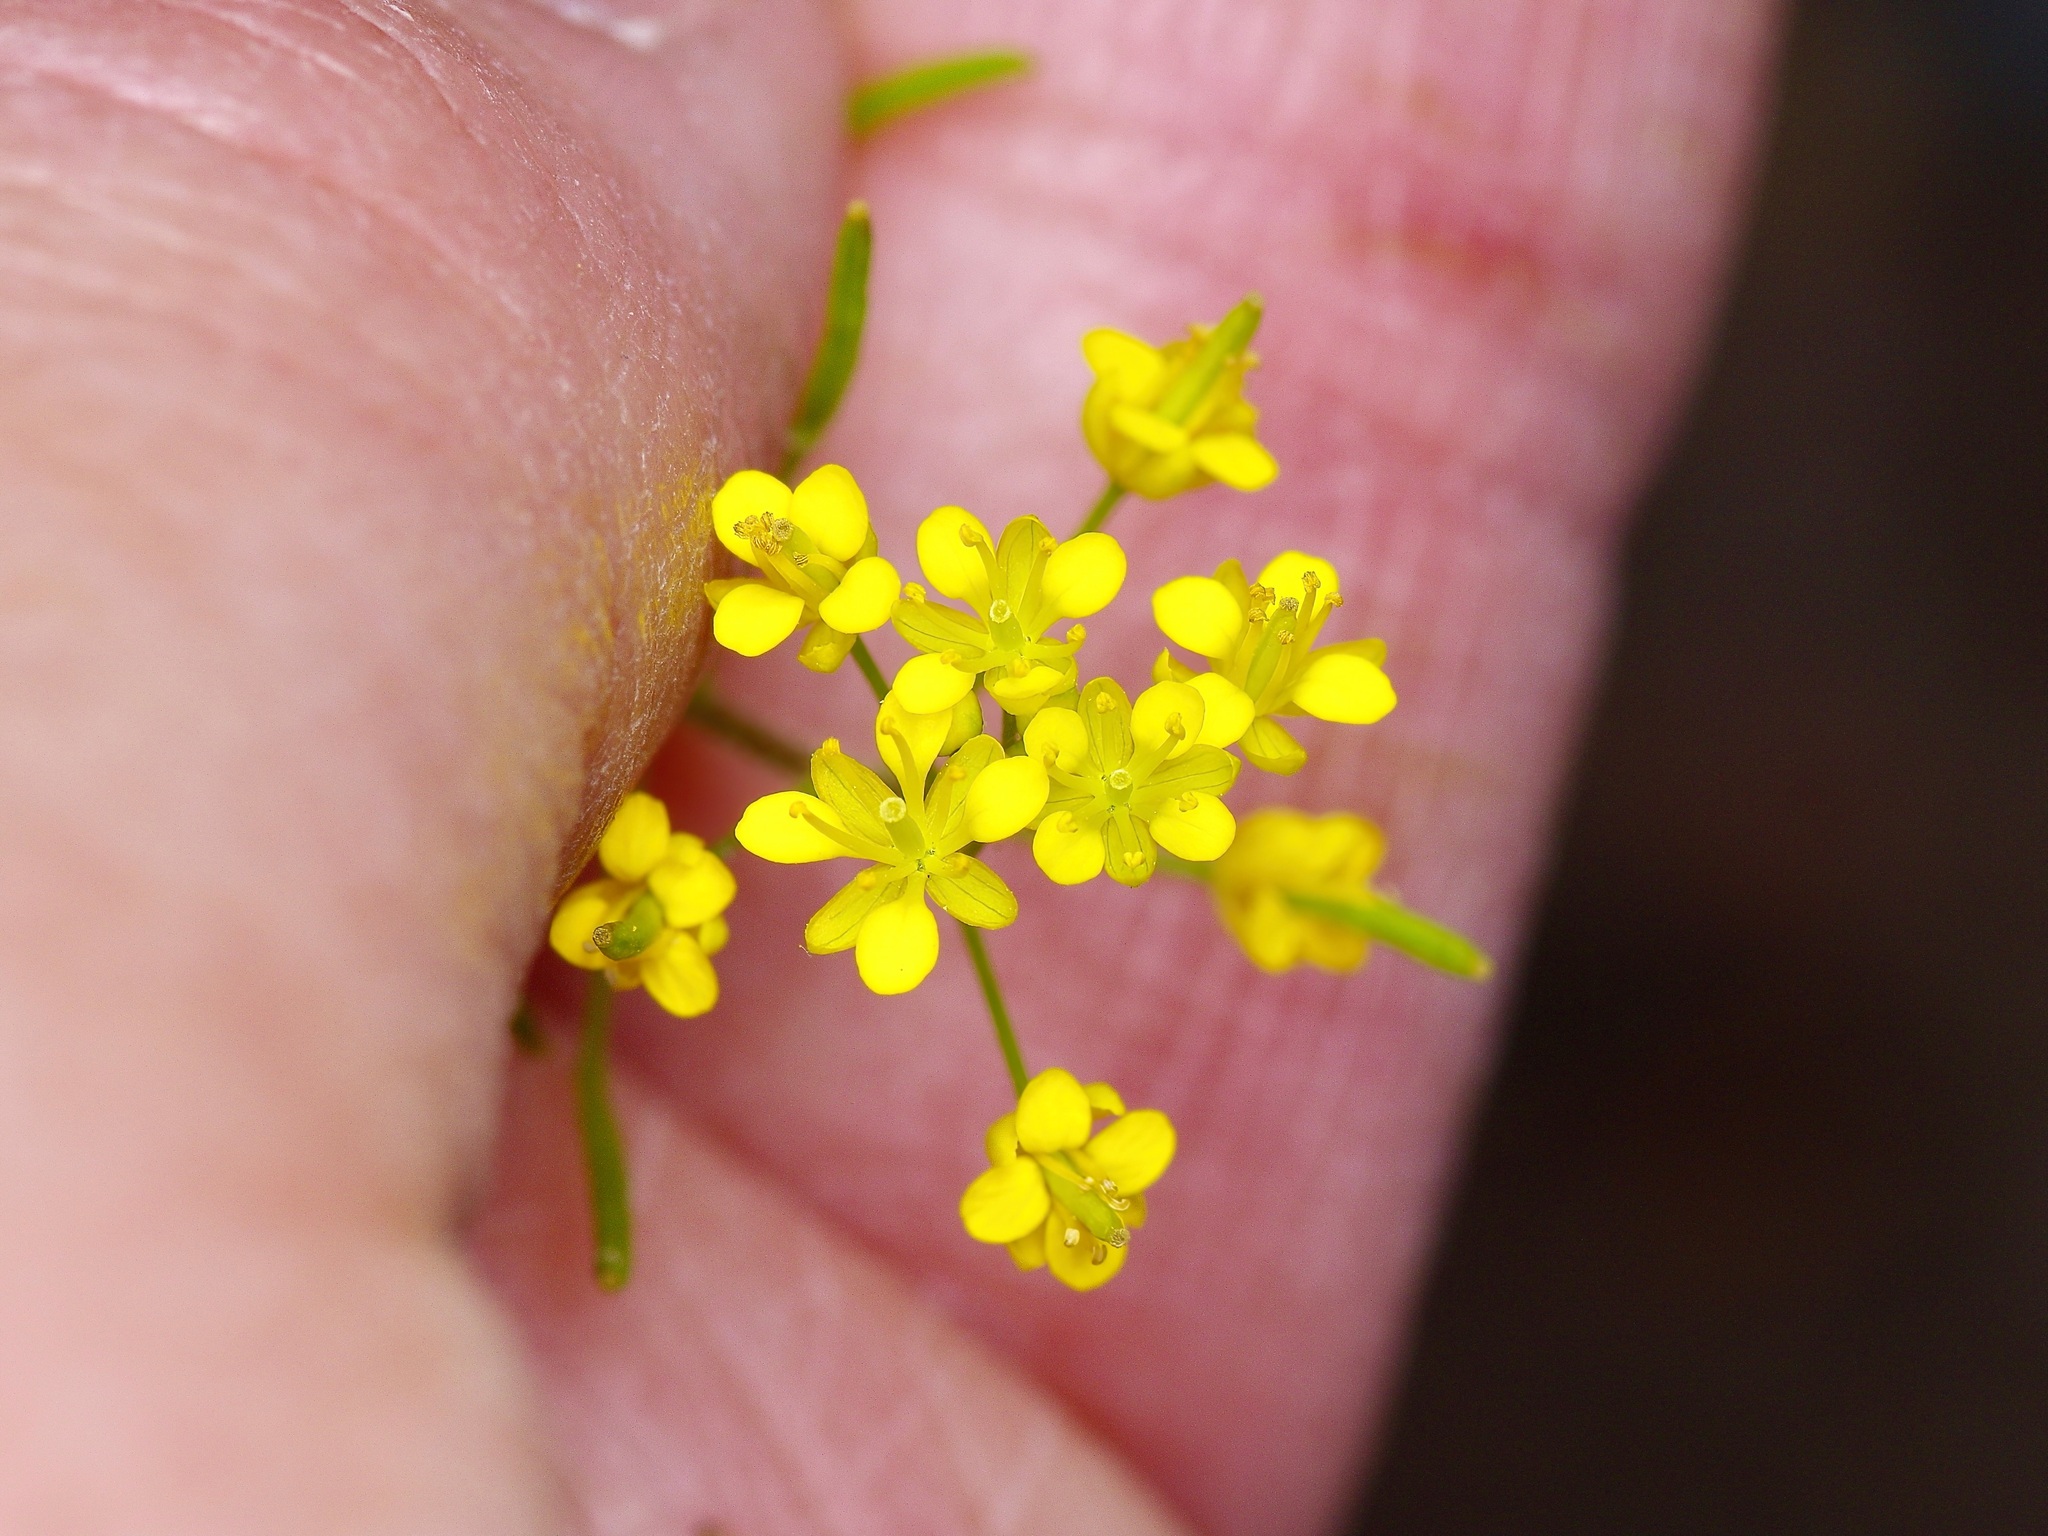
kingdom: Plantae
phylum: Tracheophyta
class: Magnoliopsida
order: Brassicales
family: Brassicaceae
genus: Descurainia
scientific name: Descurainia pinnata
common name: Western tansy mustard
